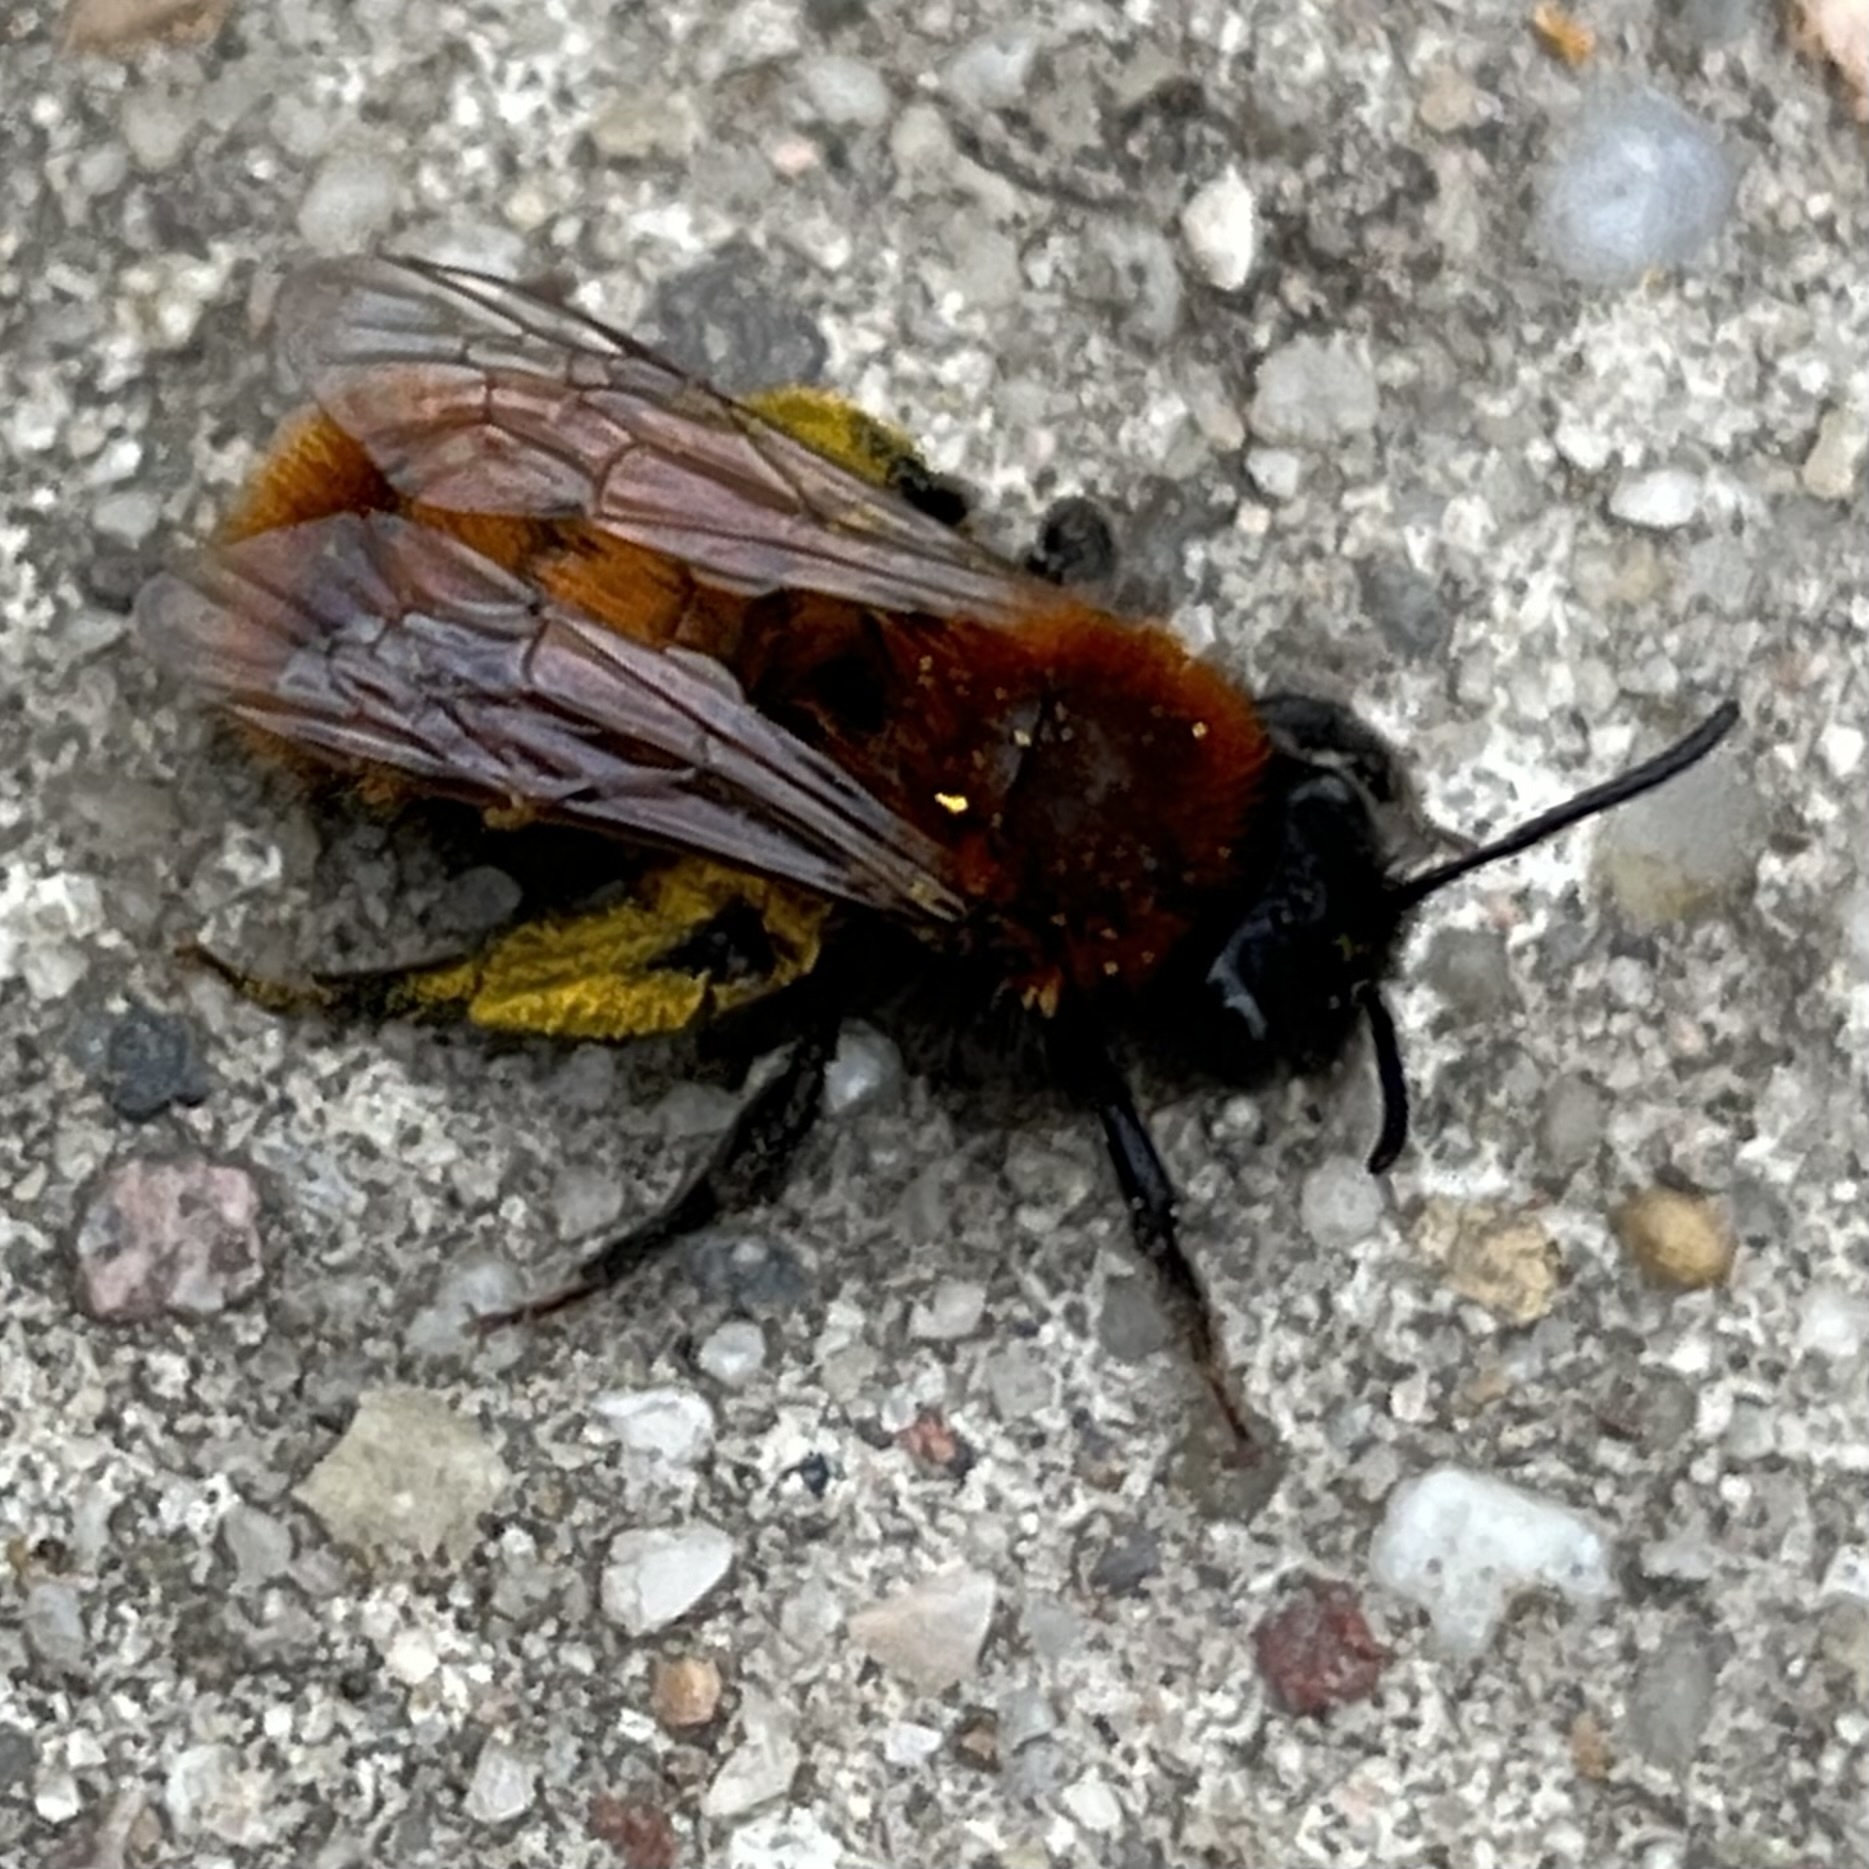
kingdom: Animalia
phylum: Arthropoda
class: Insecta
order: Hymenoptera
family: Andrenidae
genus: Andrena
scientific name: Andrena fulva
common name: Tawny mining bee
